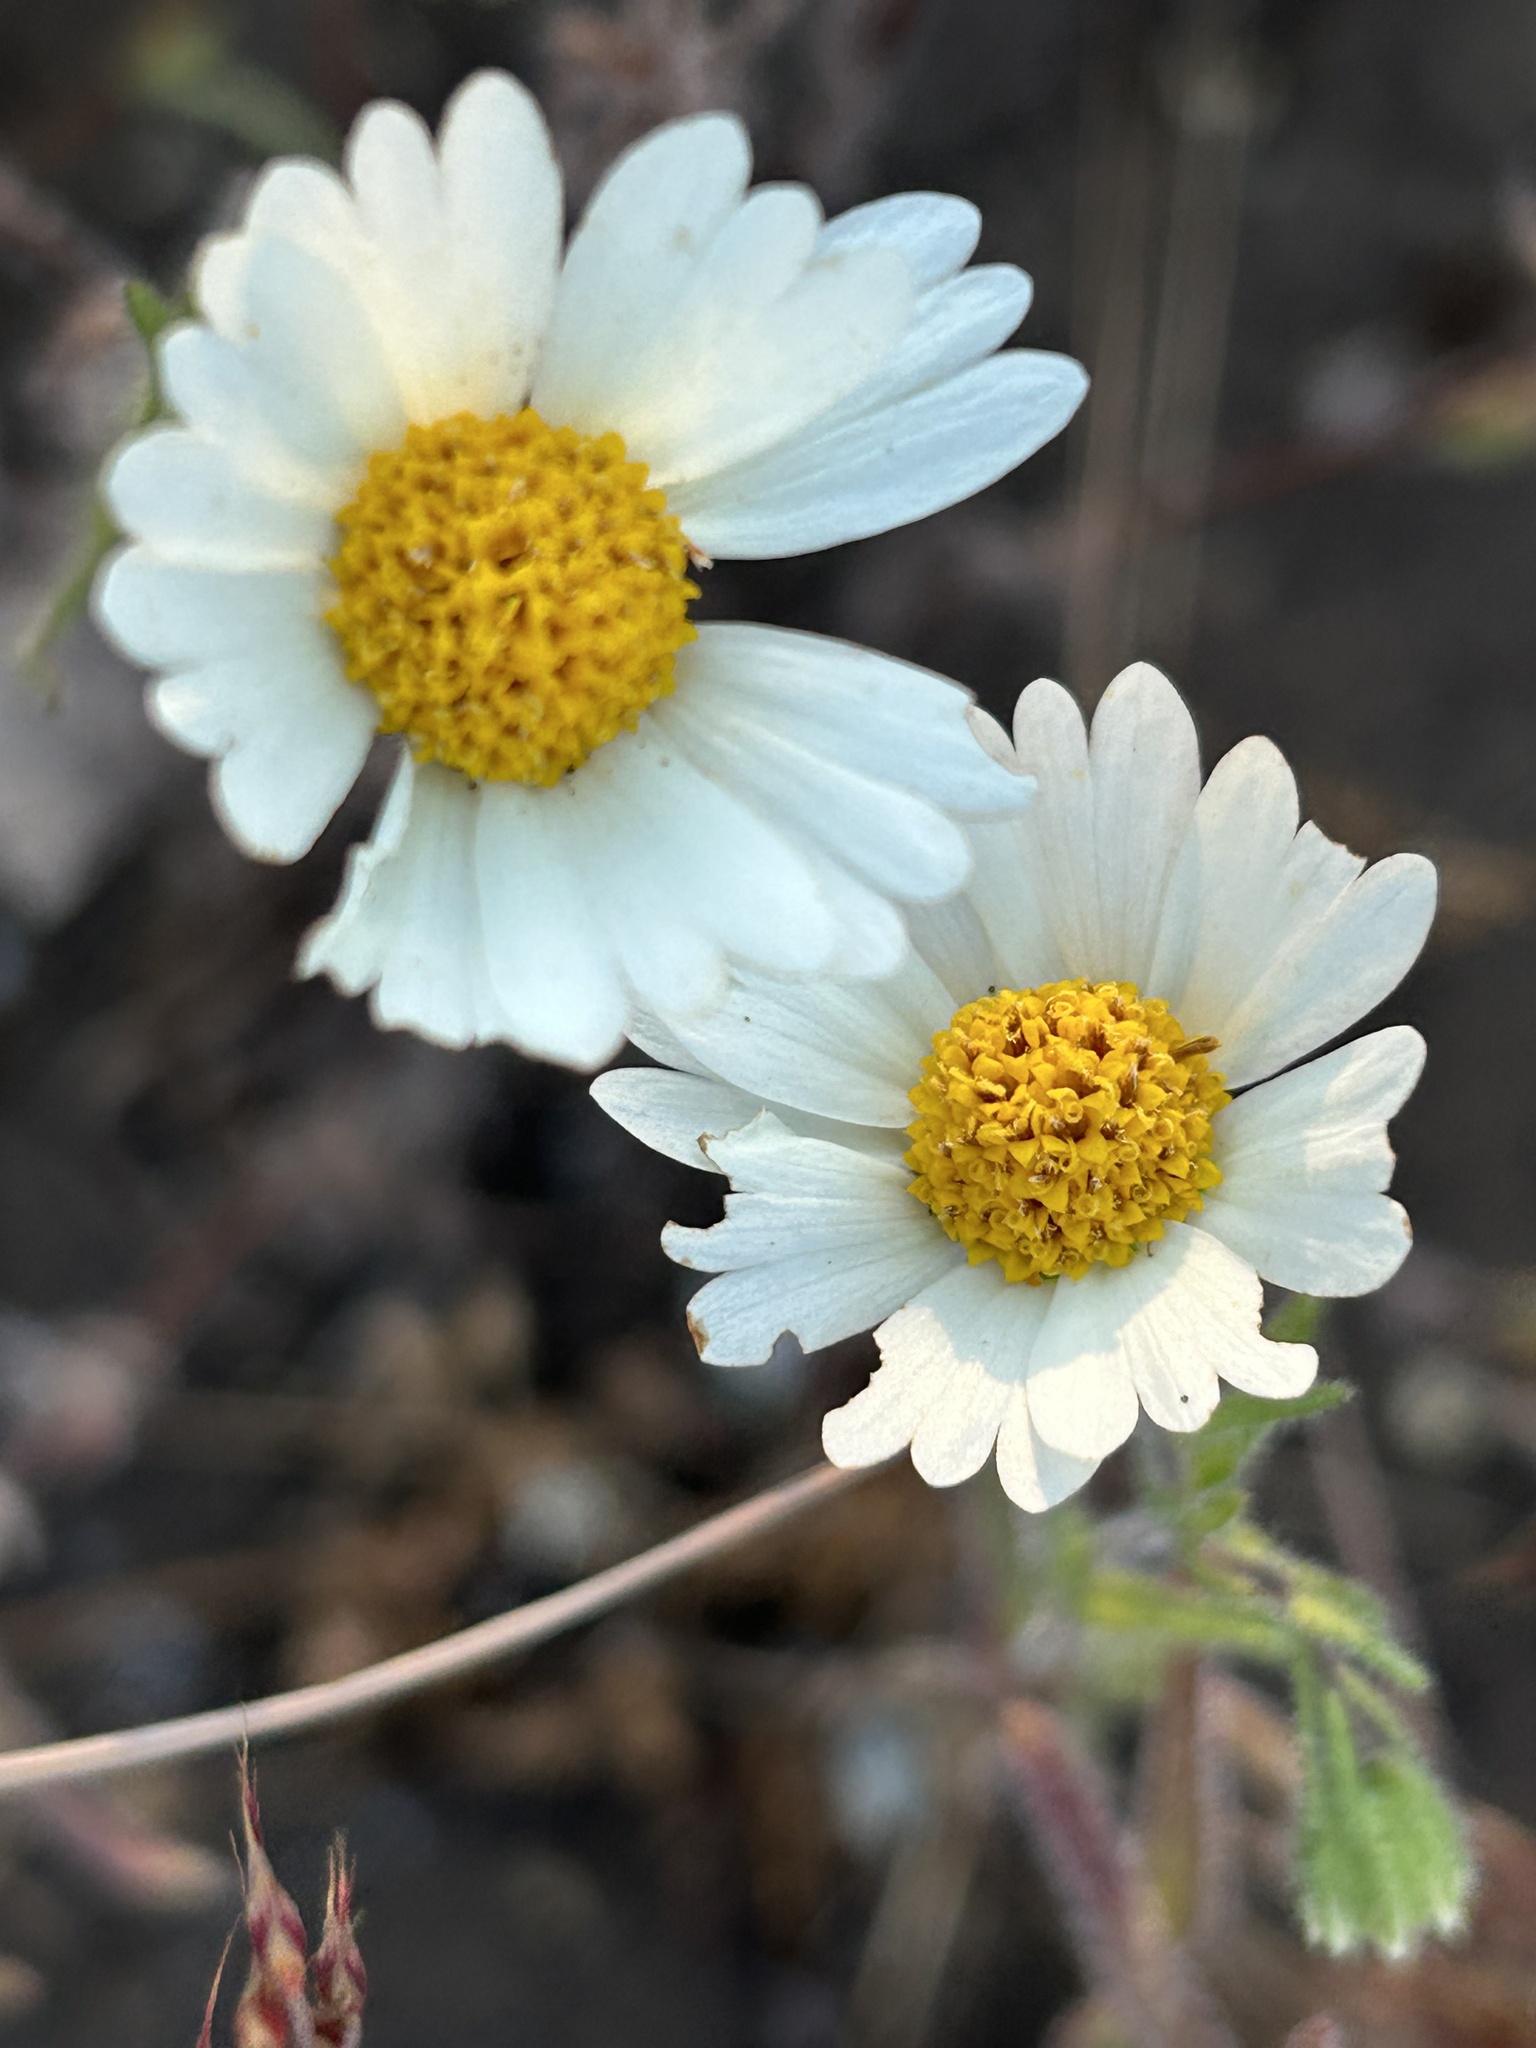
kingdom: Plantae
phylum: Tracheophyta
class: Magnoliopsida
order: Asterales
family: Asteraceae
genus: Layia
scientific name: Layia glandulosa
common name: White layia
